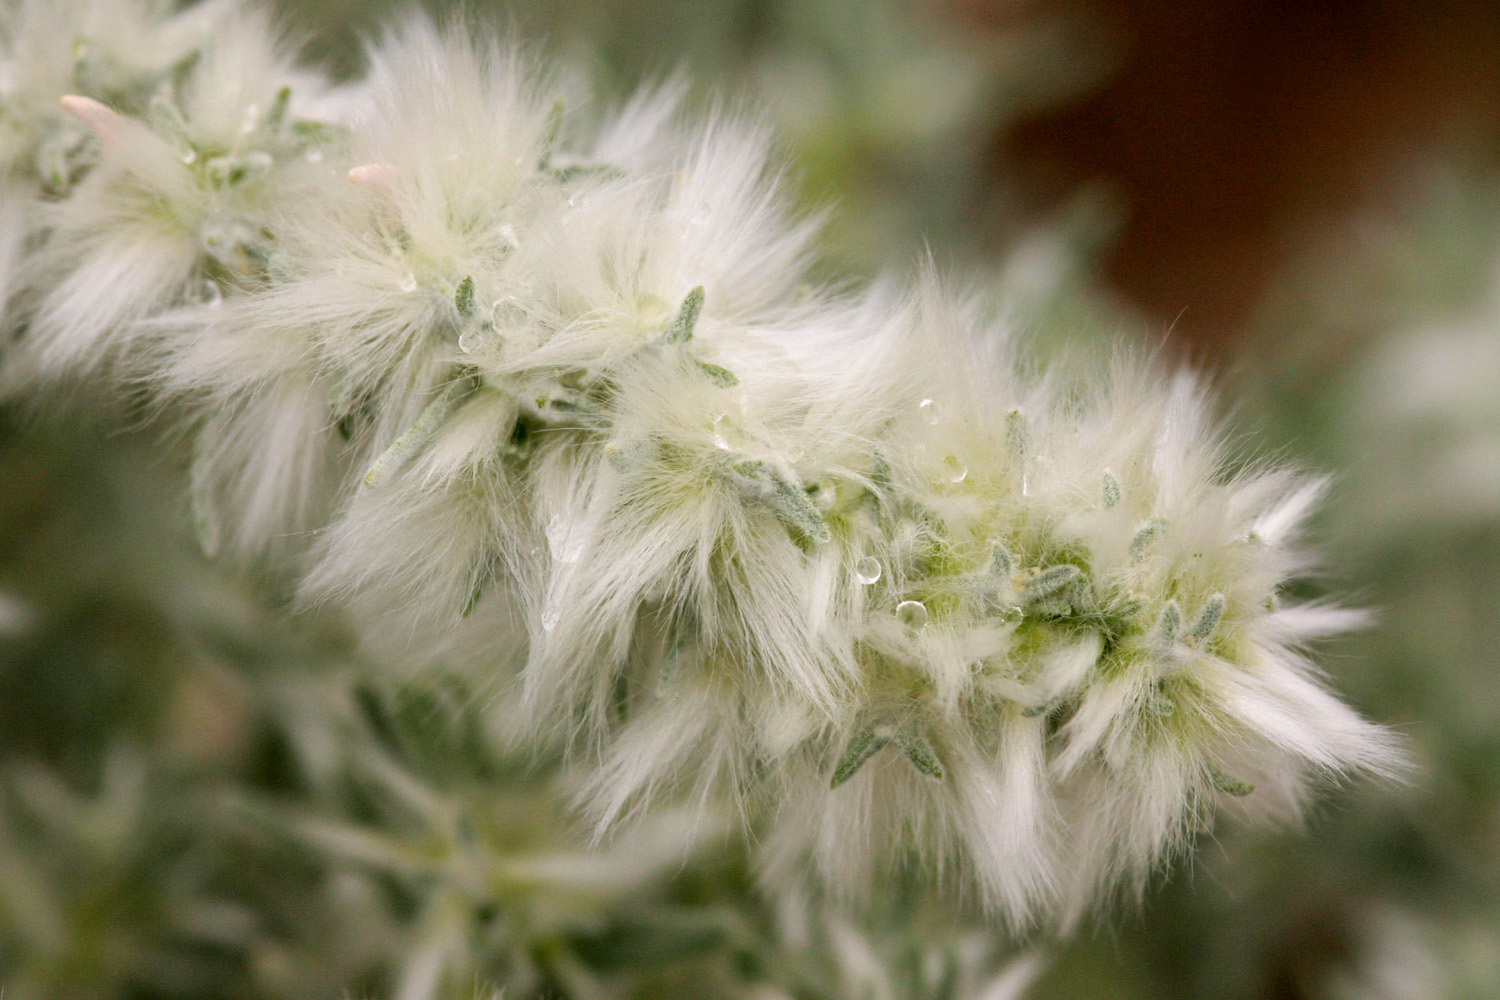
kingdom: Plantae
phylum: Tracheophyta
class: Magnoliopsida
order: Caryophyllales
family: Amaranthaceae
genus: Krascheninnikovia
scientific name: Krascheninnikovia lanata
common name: Winterfat
